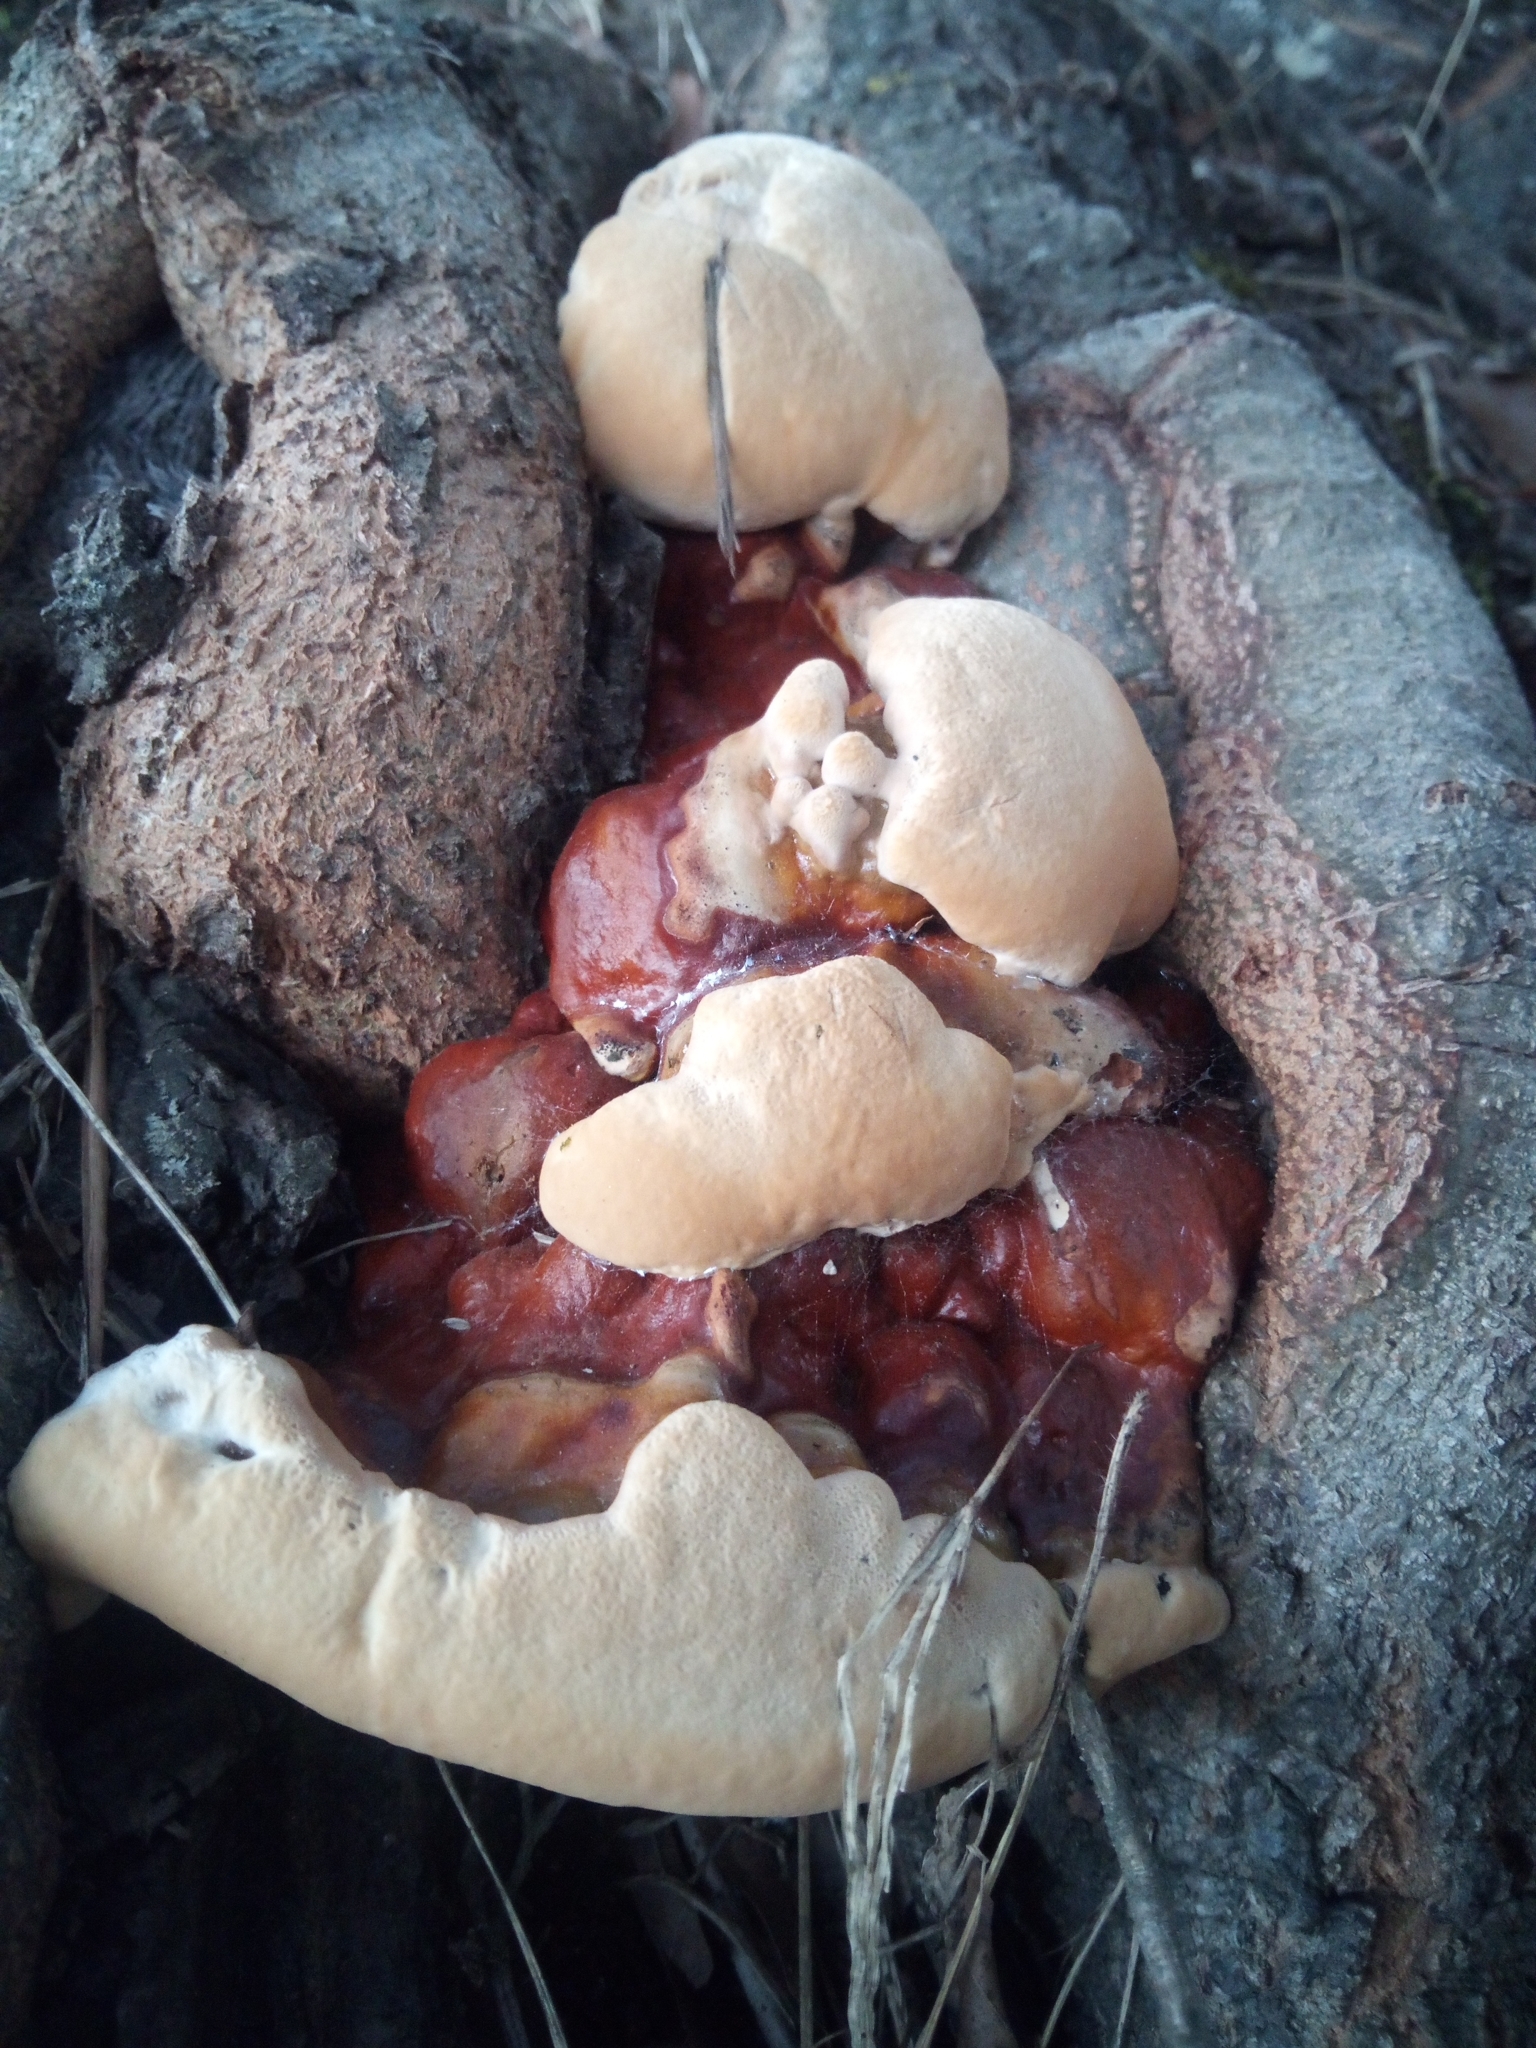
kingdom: Fungi
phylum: Basidiomycota
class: Agaricomycetes
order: Polyporales
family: Polyporaceae
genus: Ganoderma
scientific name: Ganoderma resinaceum
